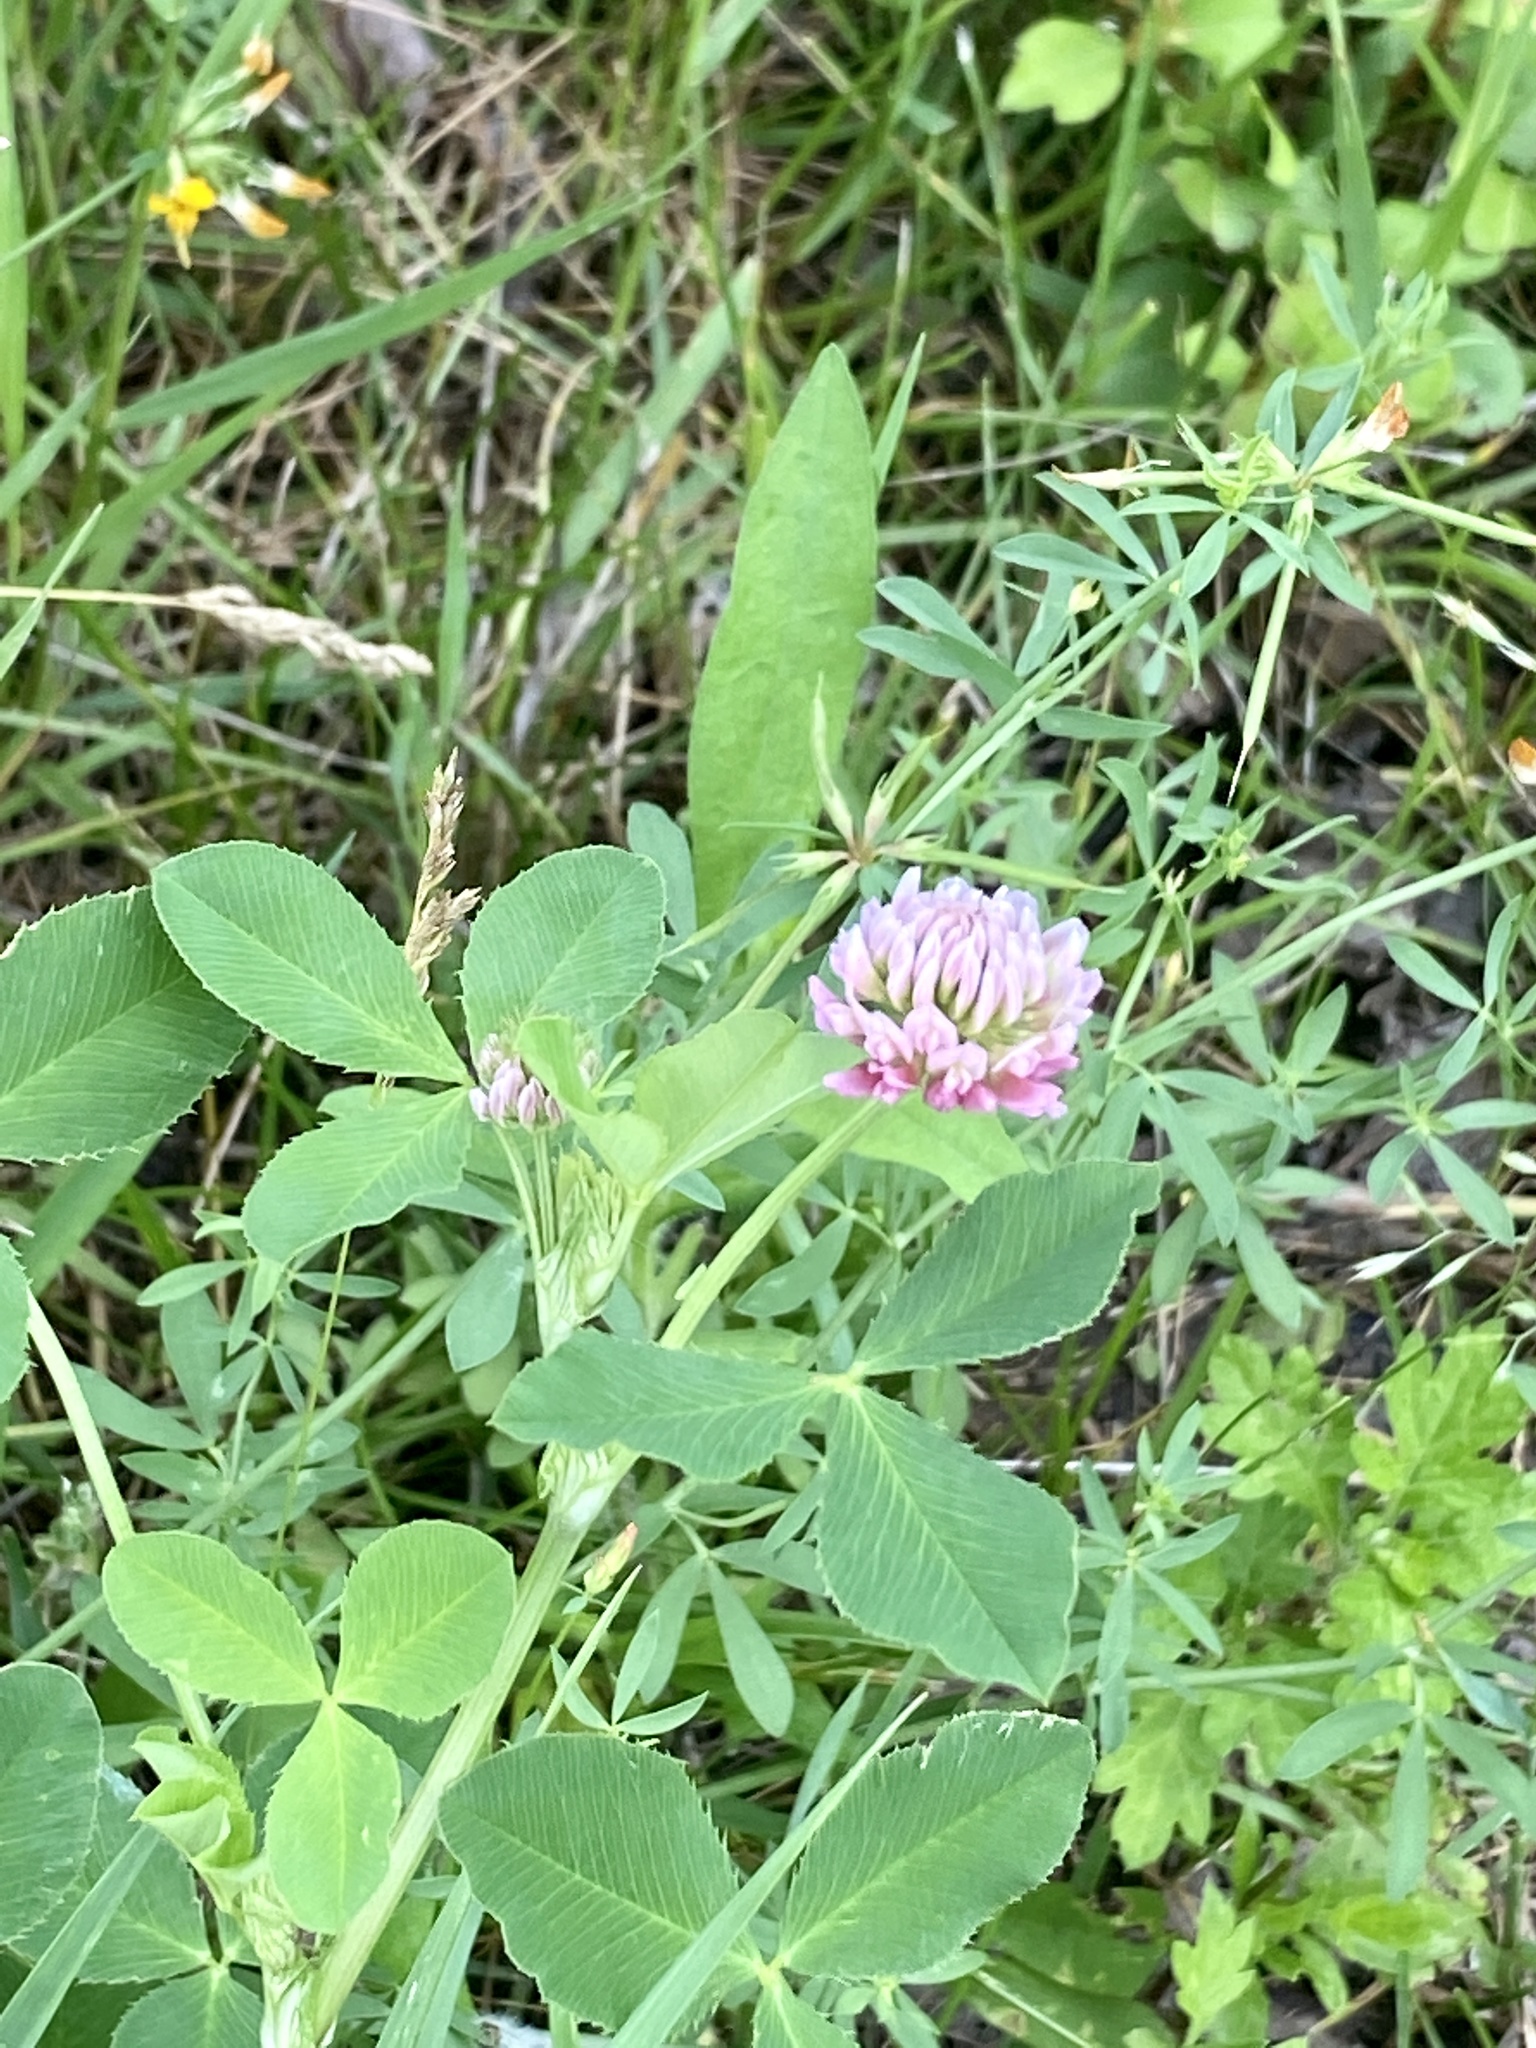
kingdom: Plantae
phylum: Tracheophyta
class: Magnoliopsida
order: Fabales
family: Fabaceae
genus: Trifolium
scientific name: Trifolium hybridum
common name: Alsike clover
